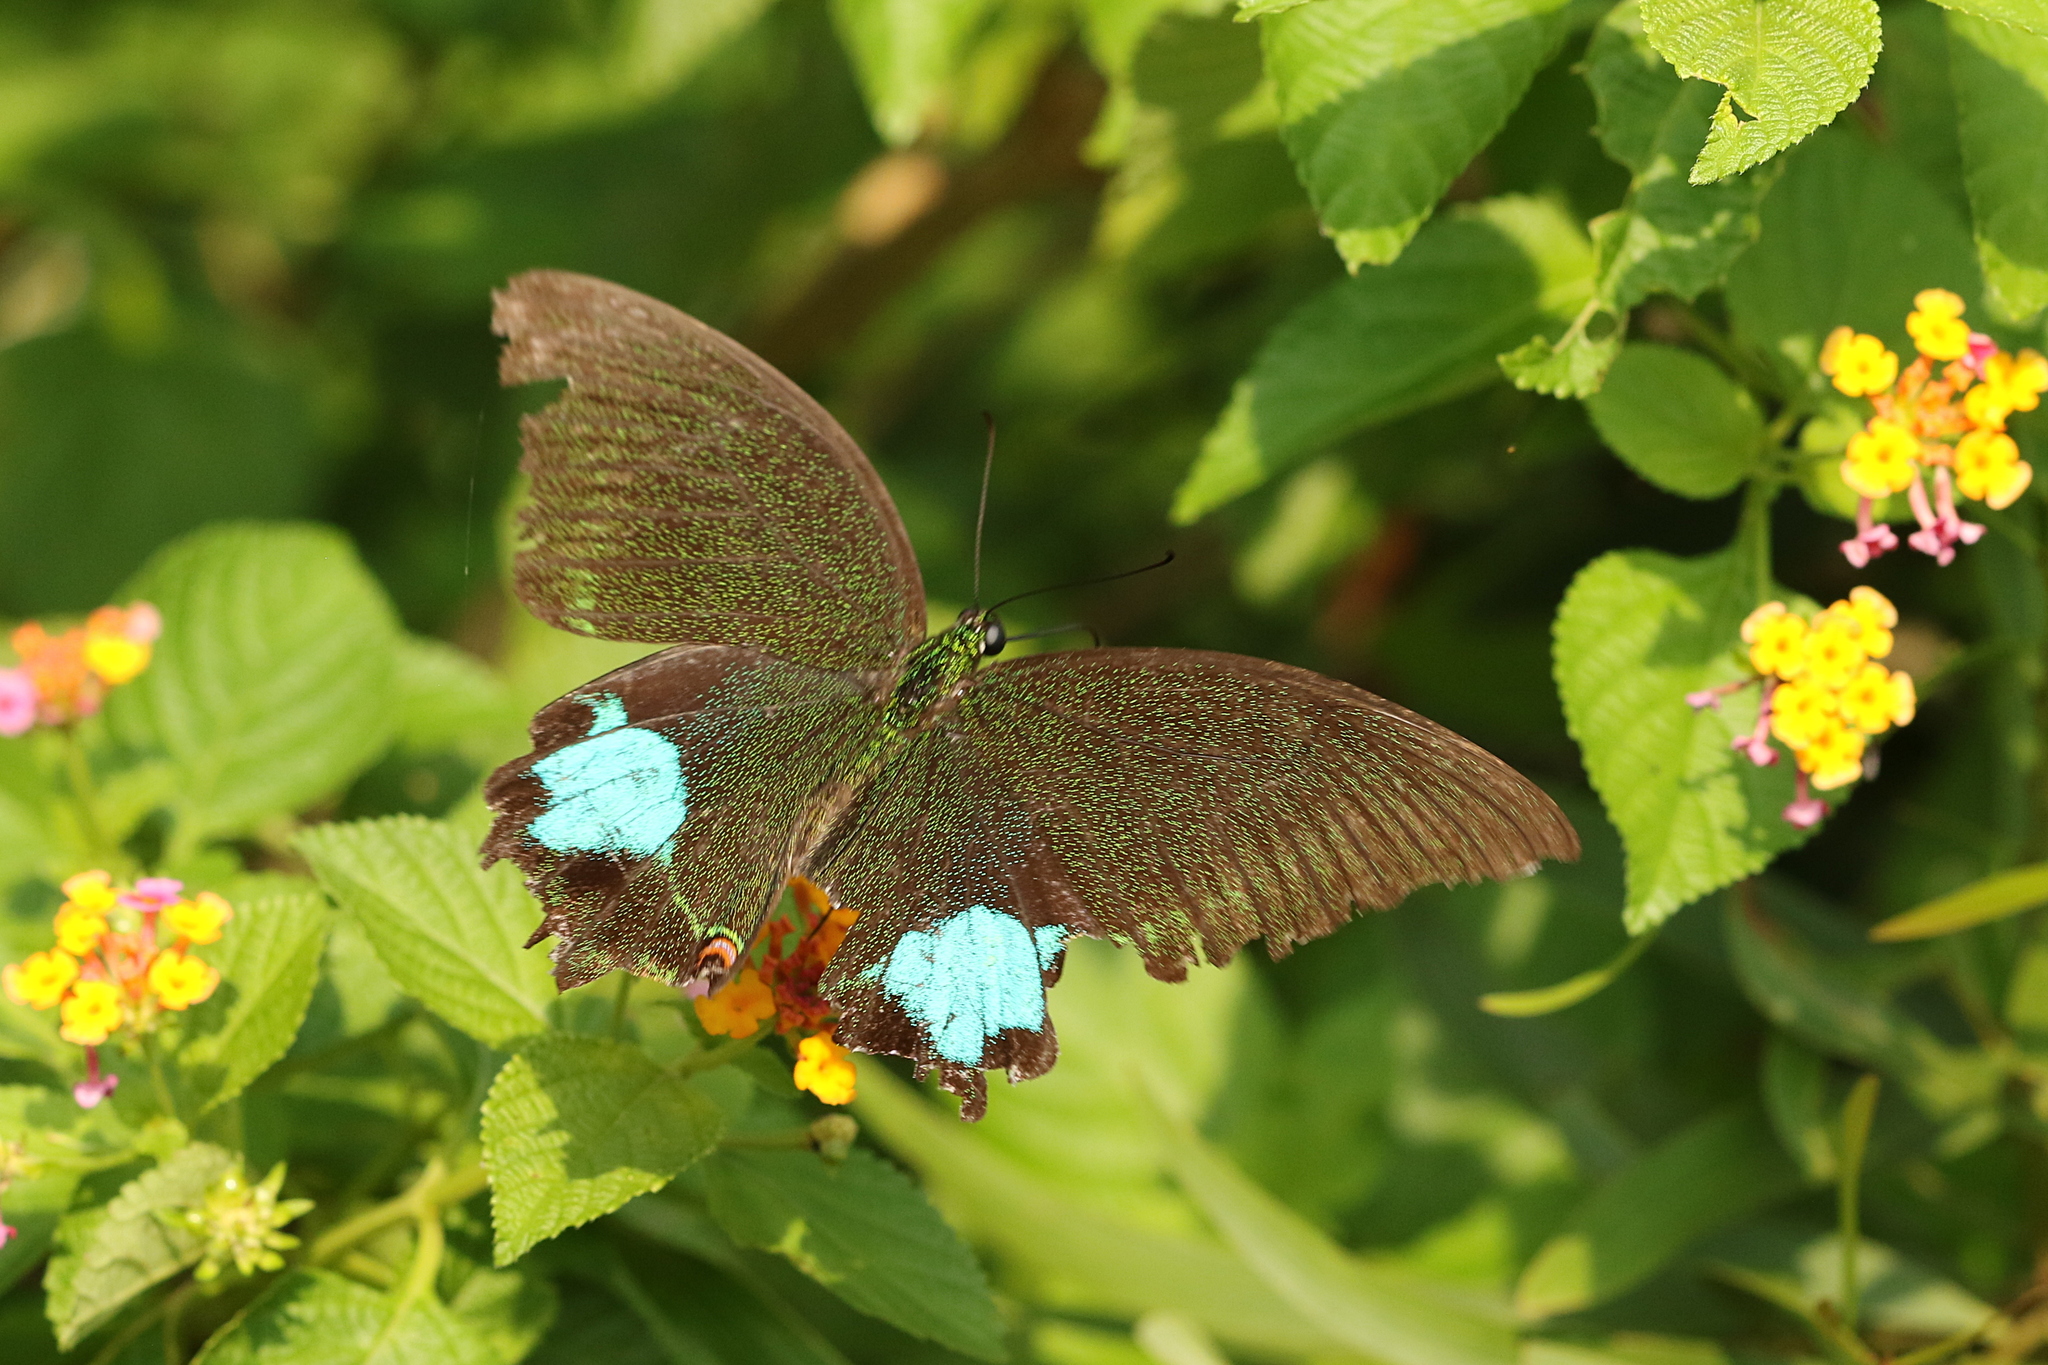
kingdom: Animalia
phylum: Arthropoda
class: Insecta
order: Lepidoptera
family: Papilionidae
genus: Papilio
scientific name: Papilio paris
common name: Paris peacock
